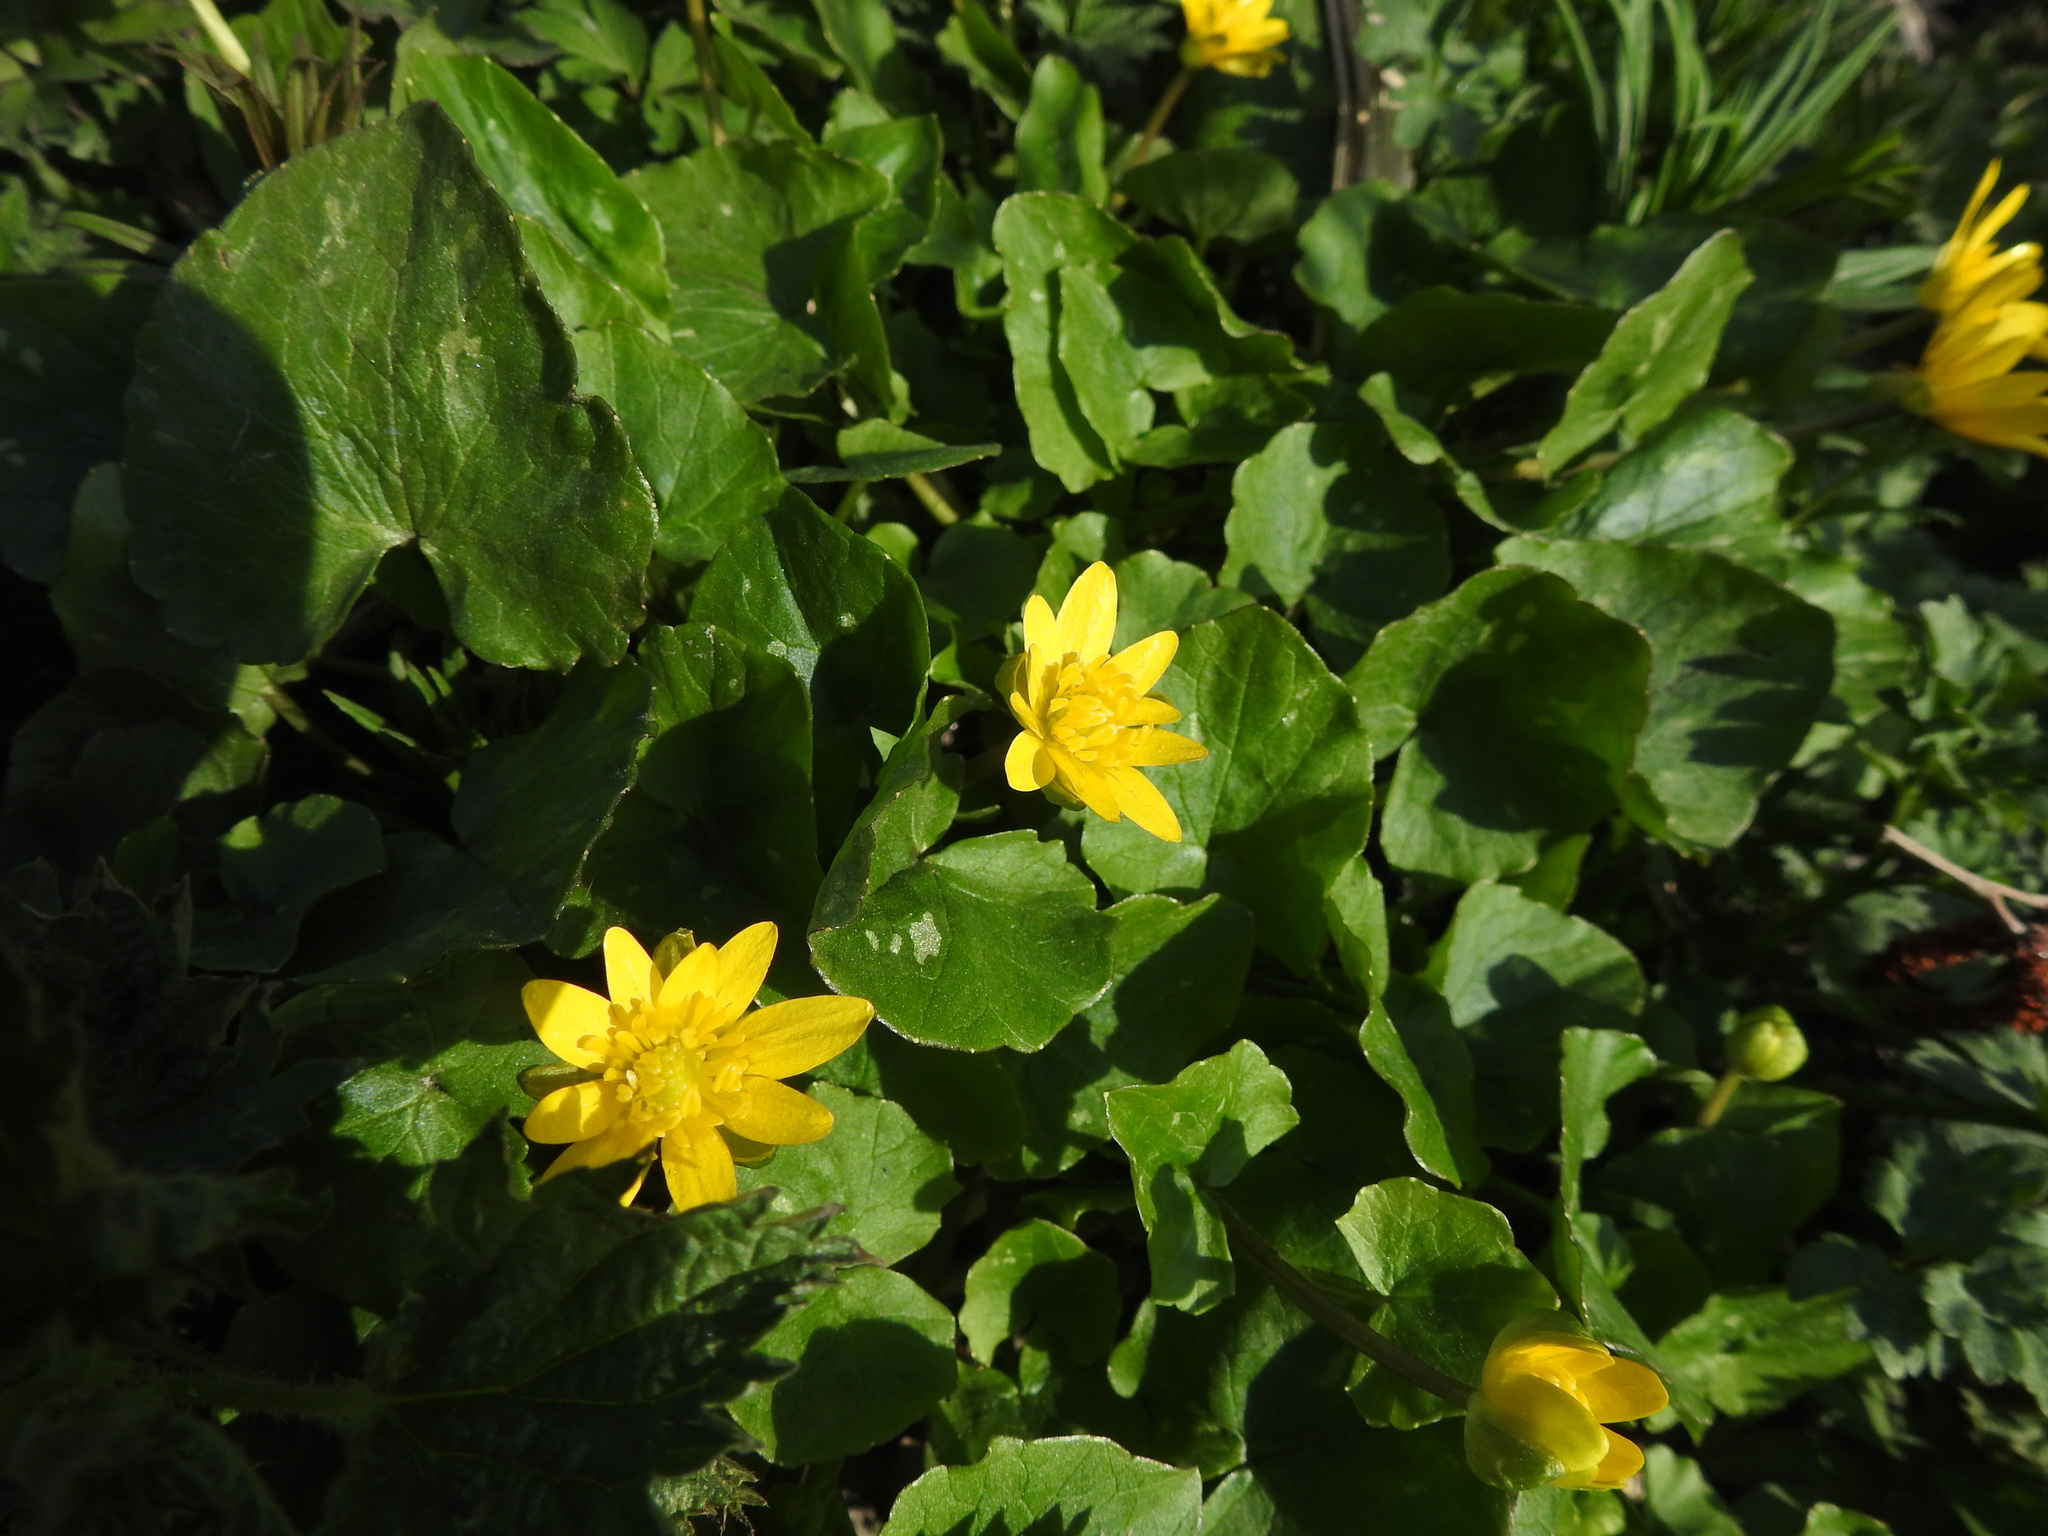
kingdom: Plantae
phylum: Tracheophyta
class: Magnoliopsida
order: Ranunculales
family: Ranunculaceae
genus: Ficaria
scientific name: Ficaria verna
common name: Lesser celandine
